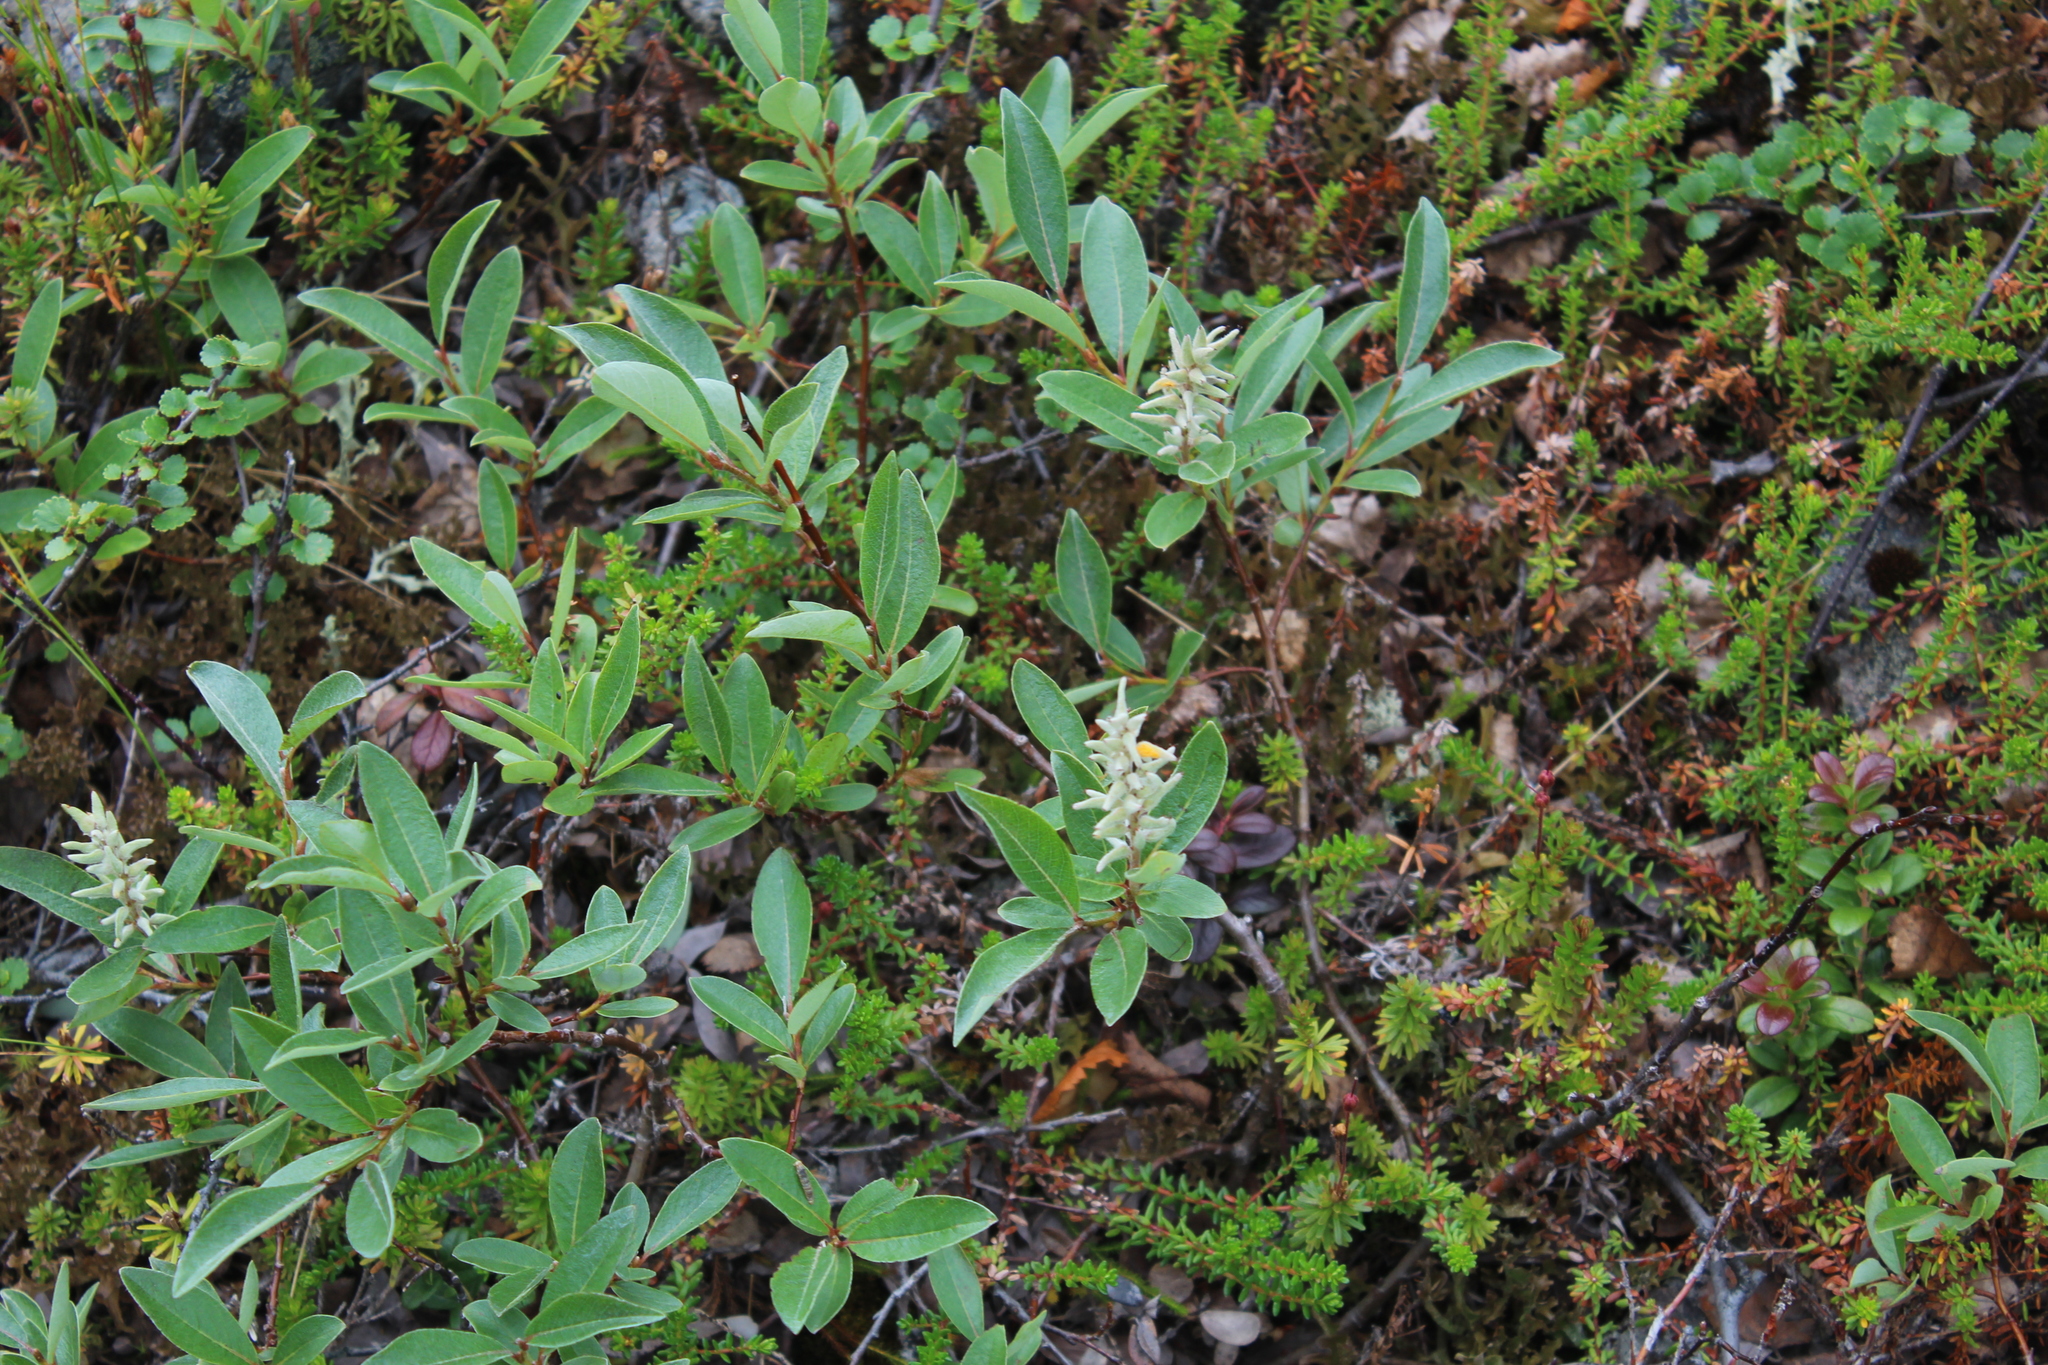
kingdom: Plantae
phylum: Tracheophyta
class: Magnoliopsida
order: Malpighiales
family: Salicaceae
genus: Salix
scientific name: Salix glauca
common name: Glaucous willow
